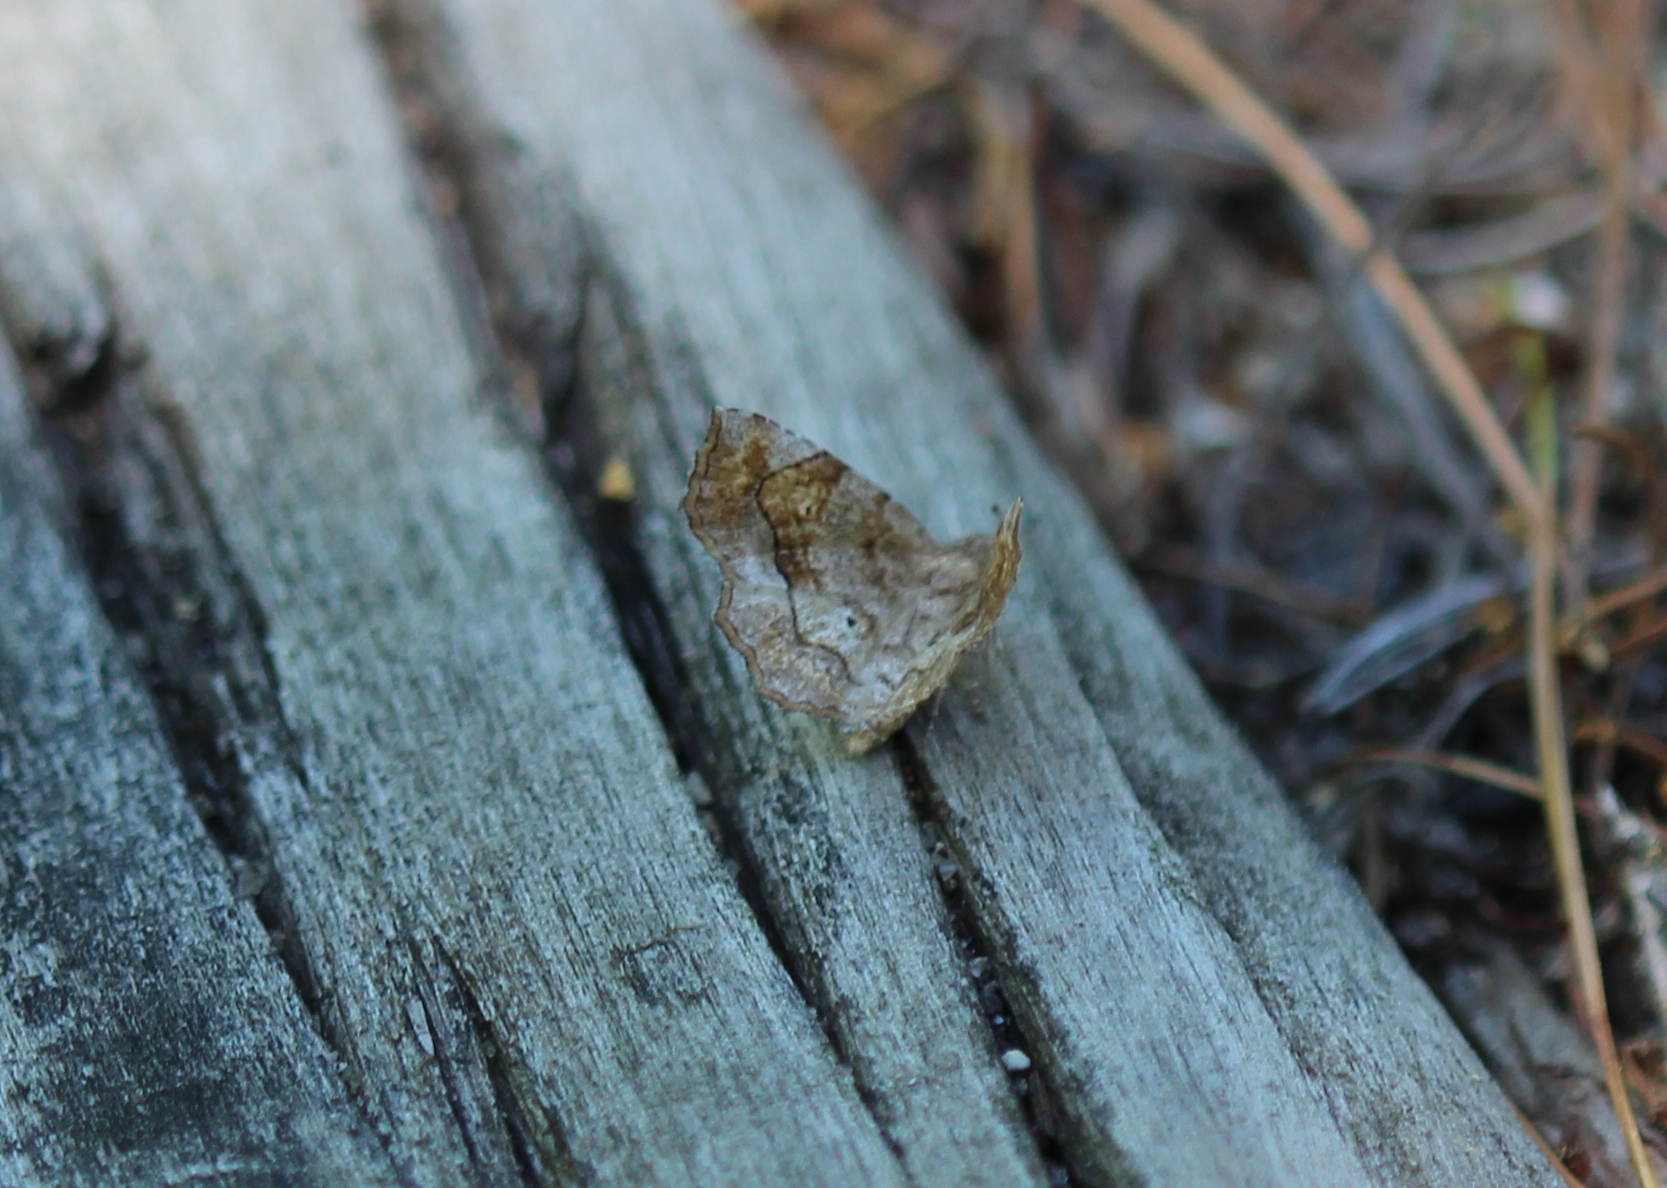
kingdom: Animalia
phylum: Arthropoda
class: Insecta
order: Lepidoptera
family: Erebidae
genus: Pangrapta
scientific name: Pangrapta decoralis
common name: Decorated owlet
